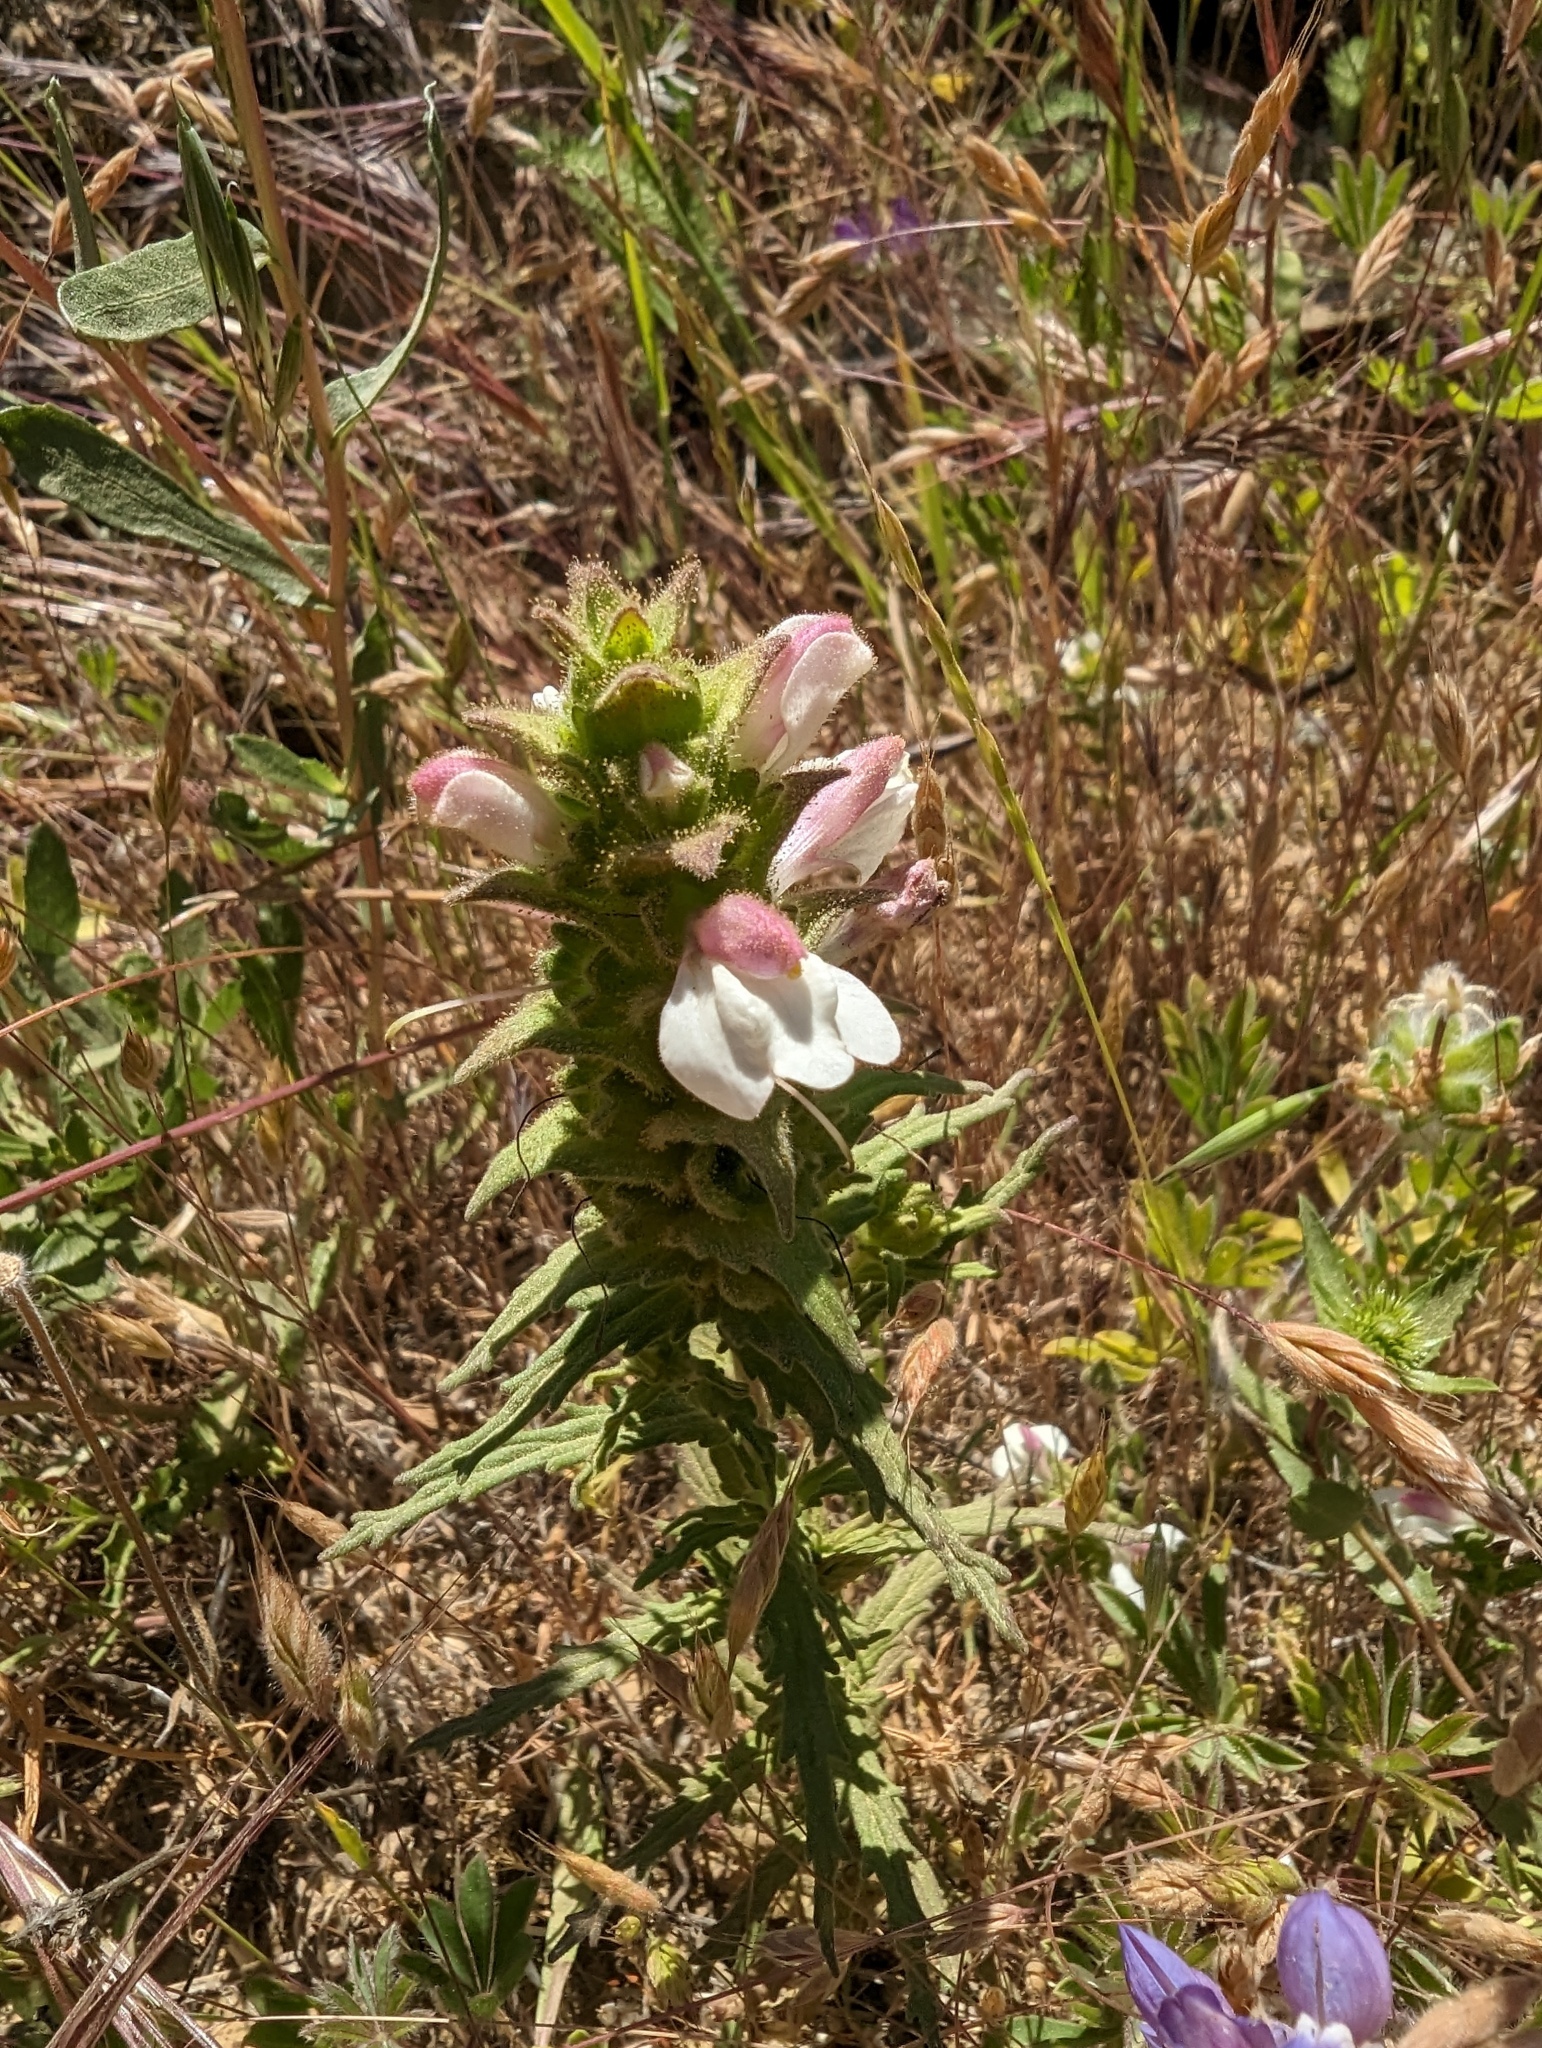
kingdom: Plantae
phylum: Tracheophyta
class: Magnoliopsida
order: Lamiales
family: Orobanchaceae
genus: Bellardia
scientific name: Bellardia trixago
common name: Mediterranean lineseed
